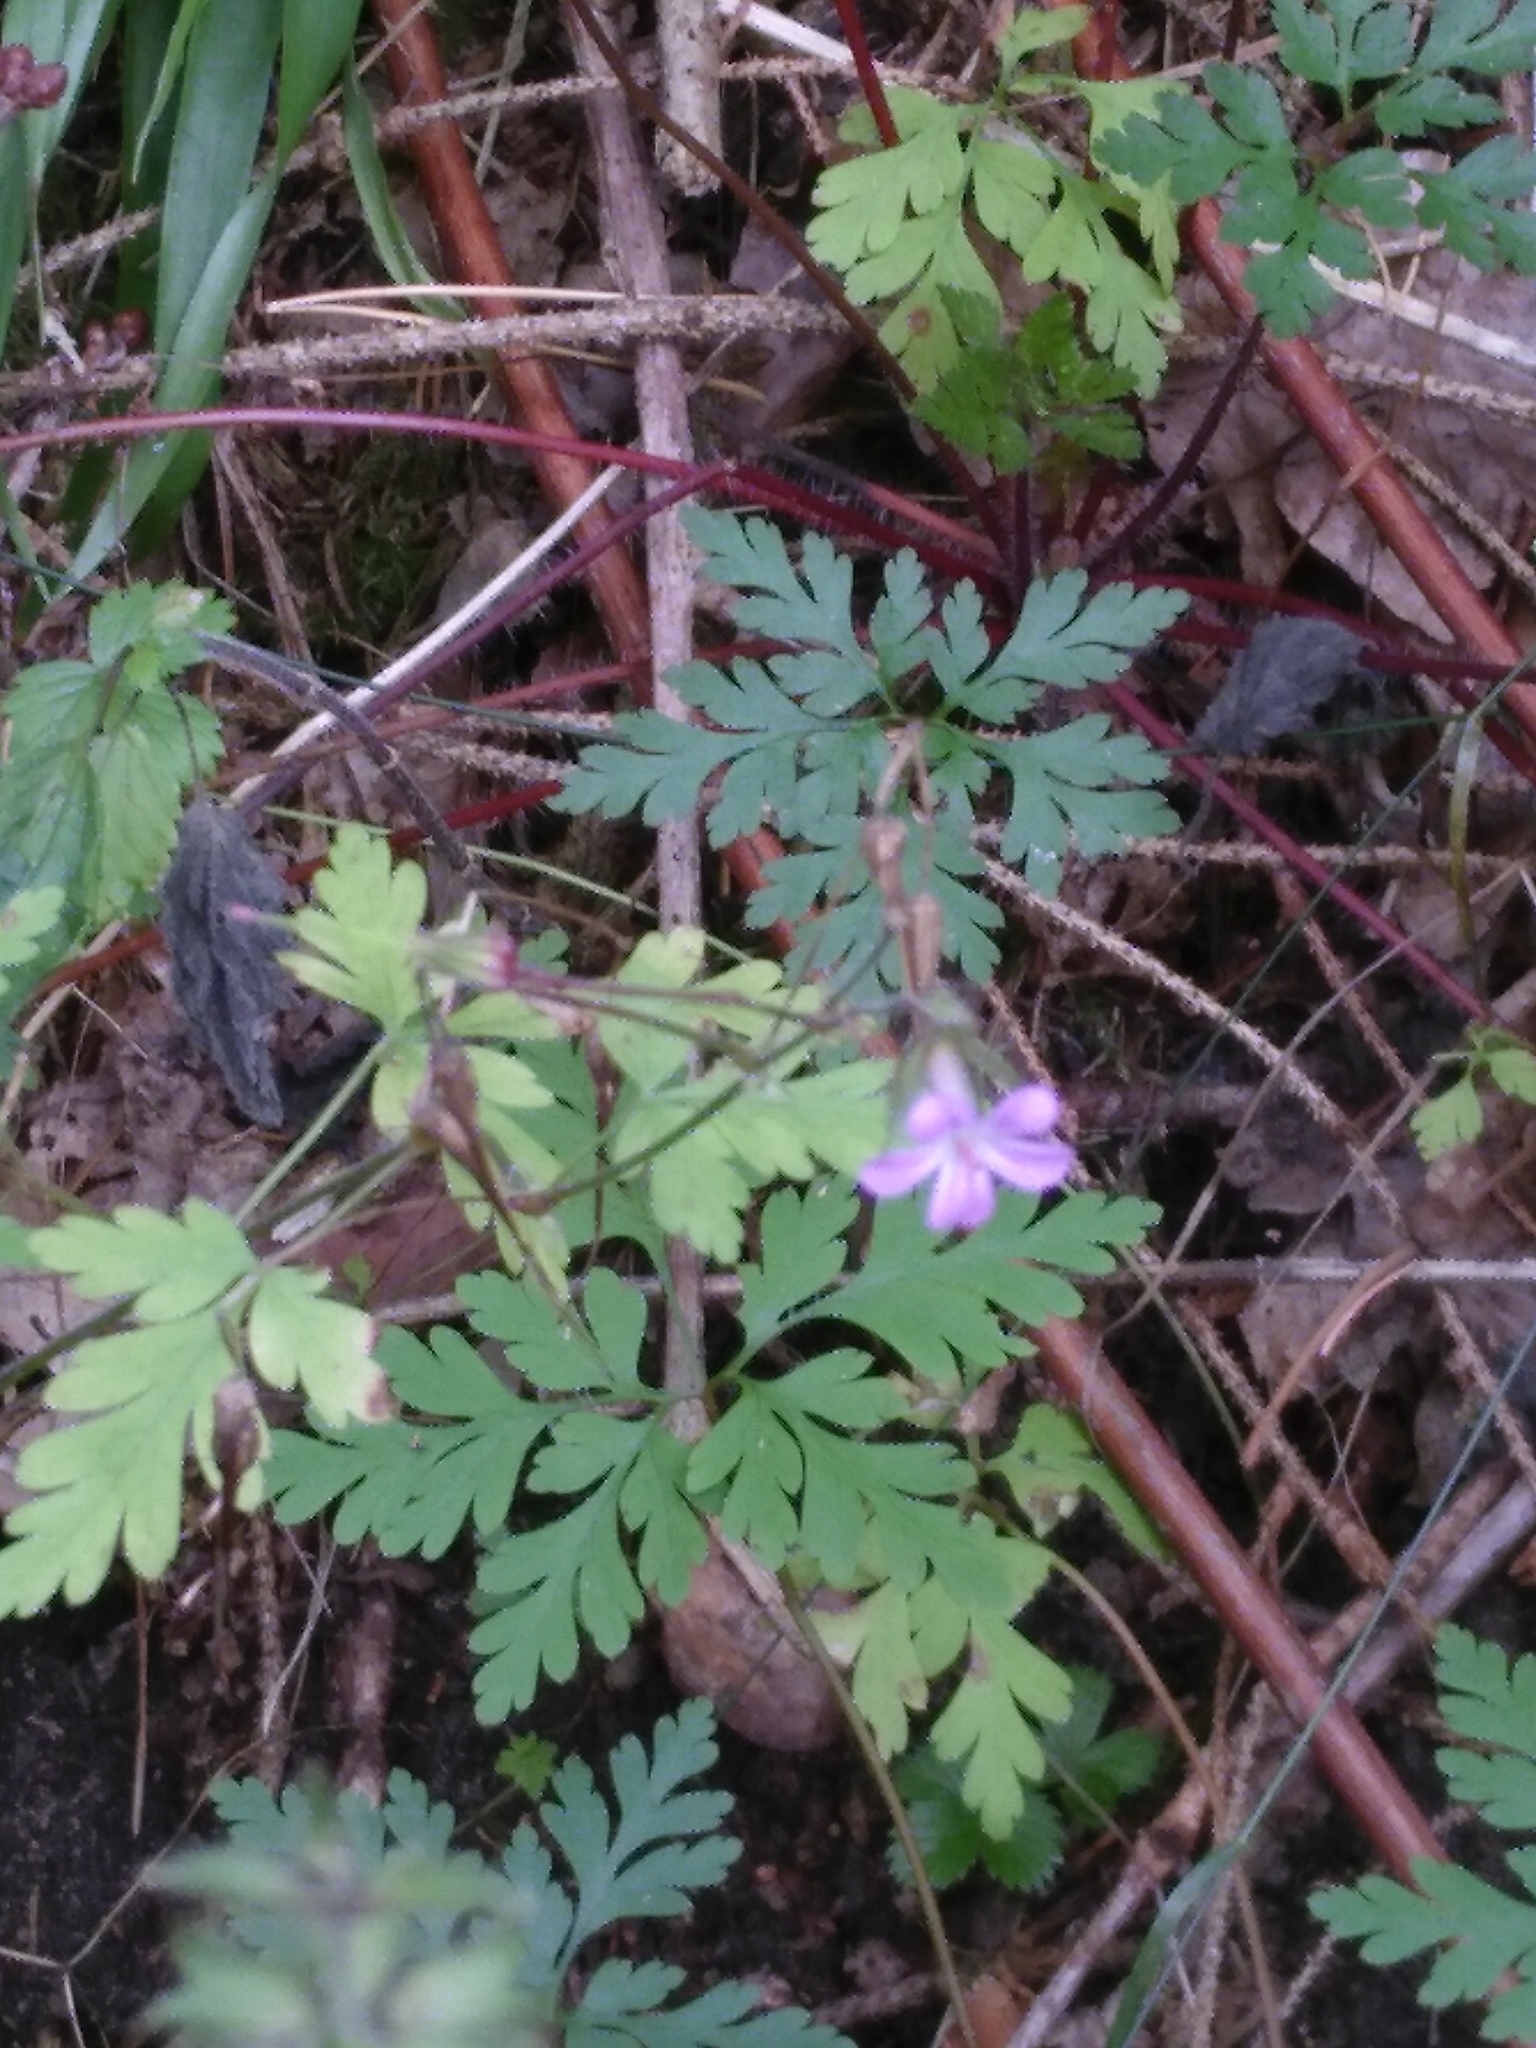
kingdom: Plantae
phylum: Tracheophyta
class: Magnoliopsida
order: Geraniales
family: Geraniaceae
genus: Geranium
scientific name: Geranium robertianum
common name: Herb-robert
